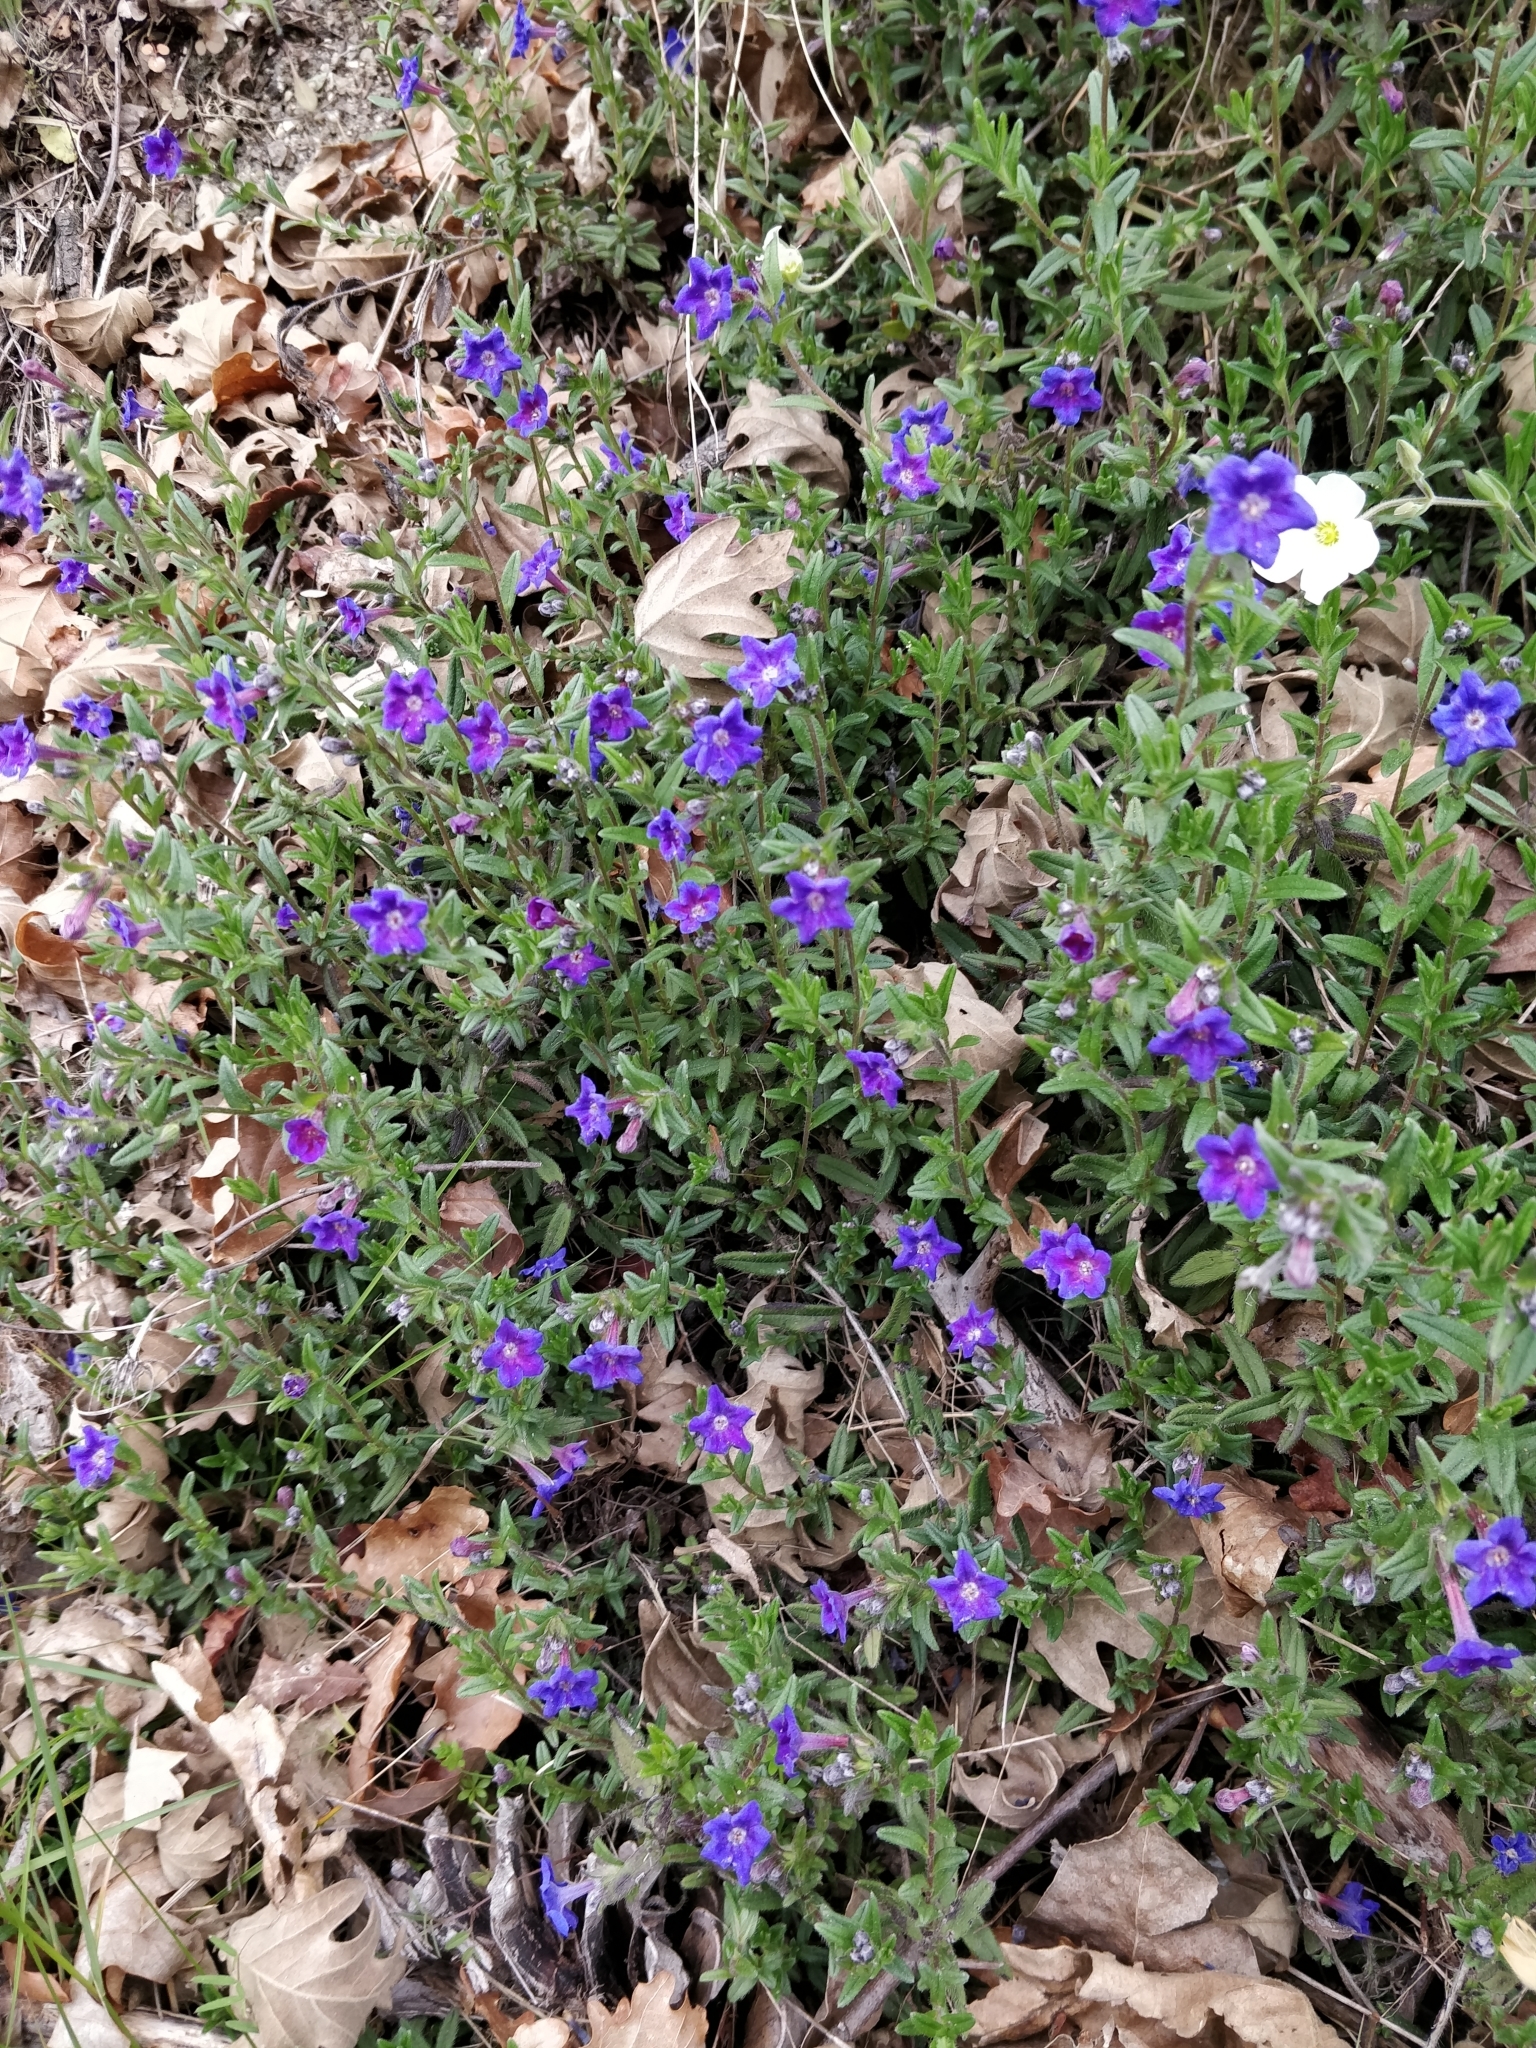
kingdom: Plantae
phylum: Tracheophyta
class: Magnoliopsida
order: Boraginales
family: Boraginaceae
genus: Glandora
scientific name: Glandora prostrata
